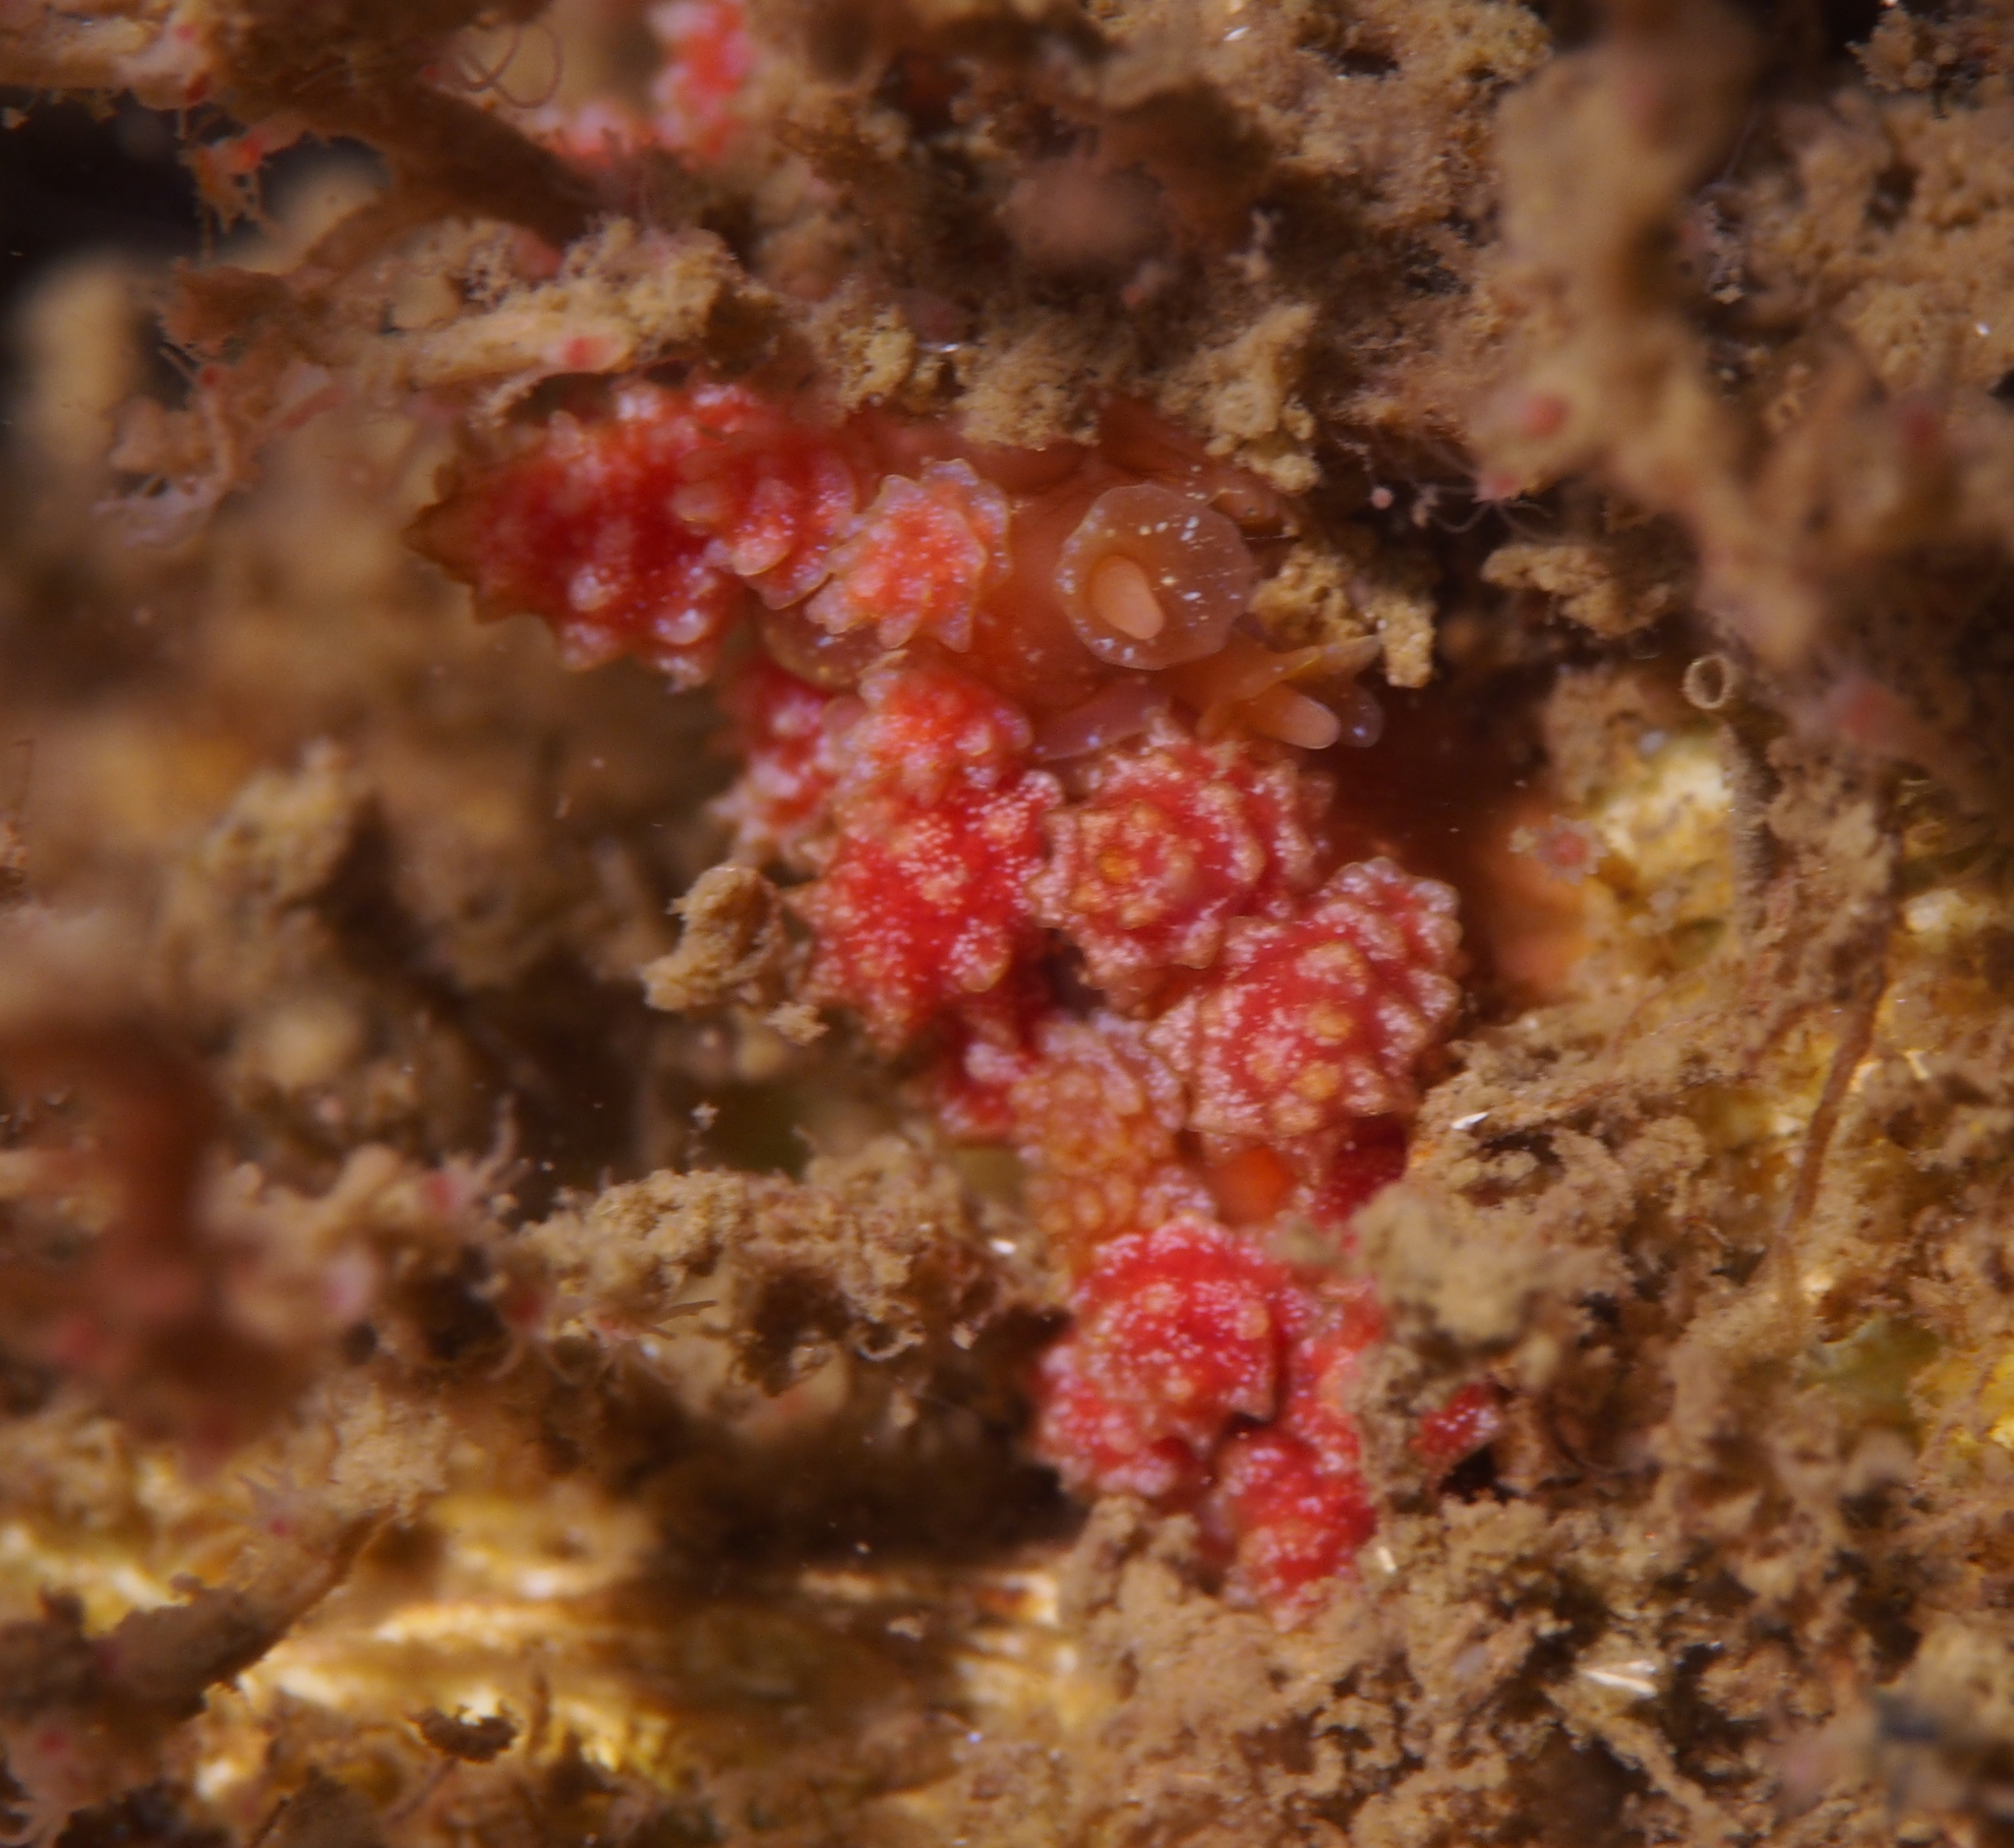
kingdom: Animalia
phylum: Mollusca
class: Gastropoda
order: Nudibranchia
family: Dotidae
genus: Doto
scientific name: Doto fragilis
